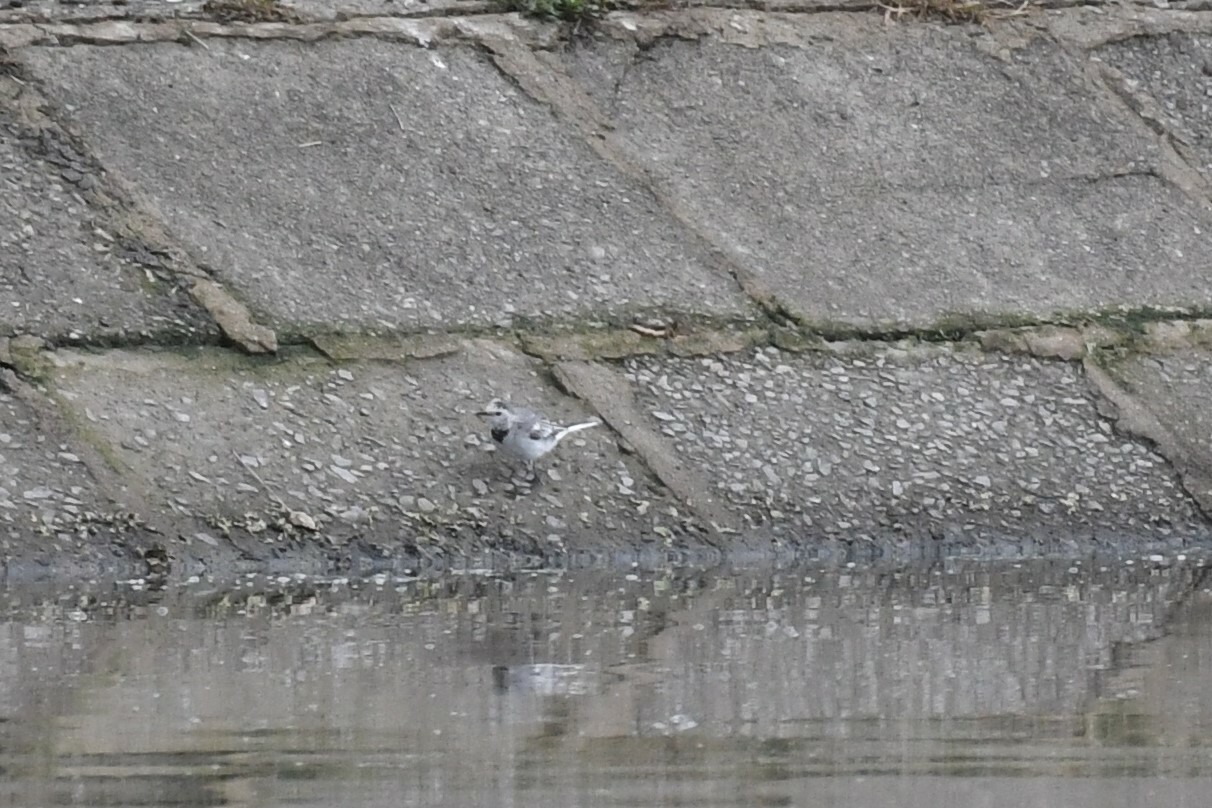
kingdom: Animalia
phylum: Chordata
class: Aves
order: Passeriformes
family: Motacillidae
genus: Motacilla
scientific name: Motacilla alba
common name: White wagtail
